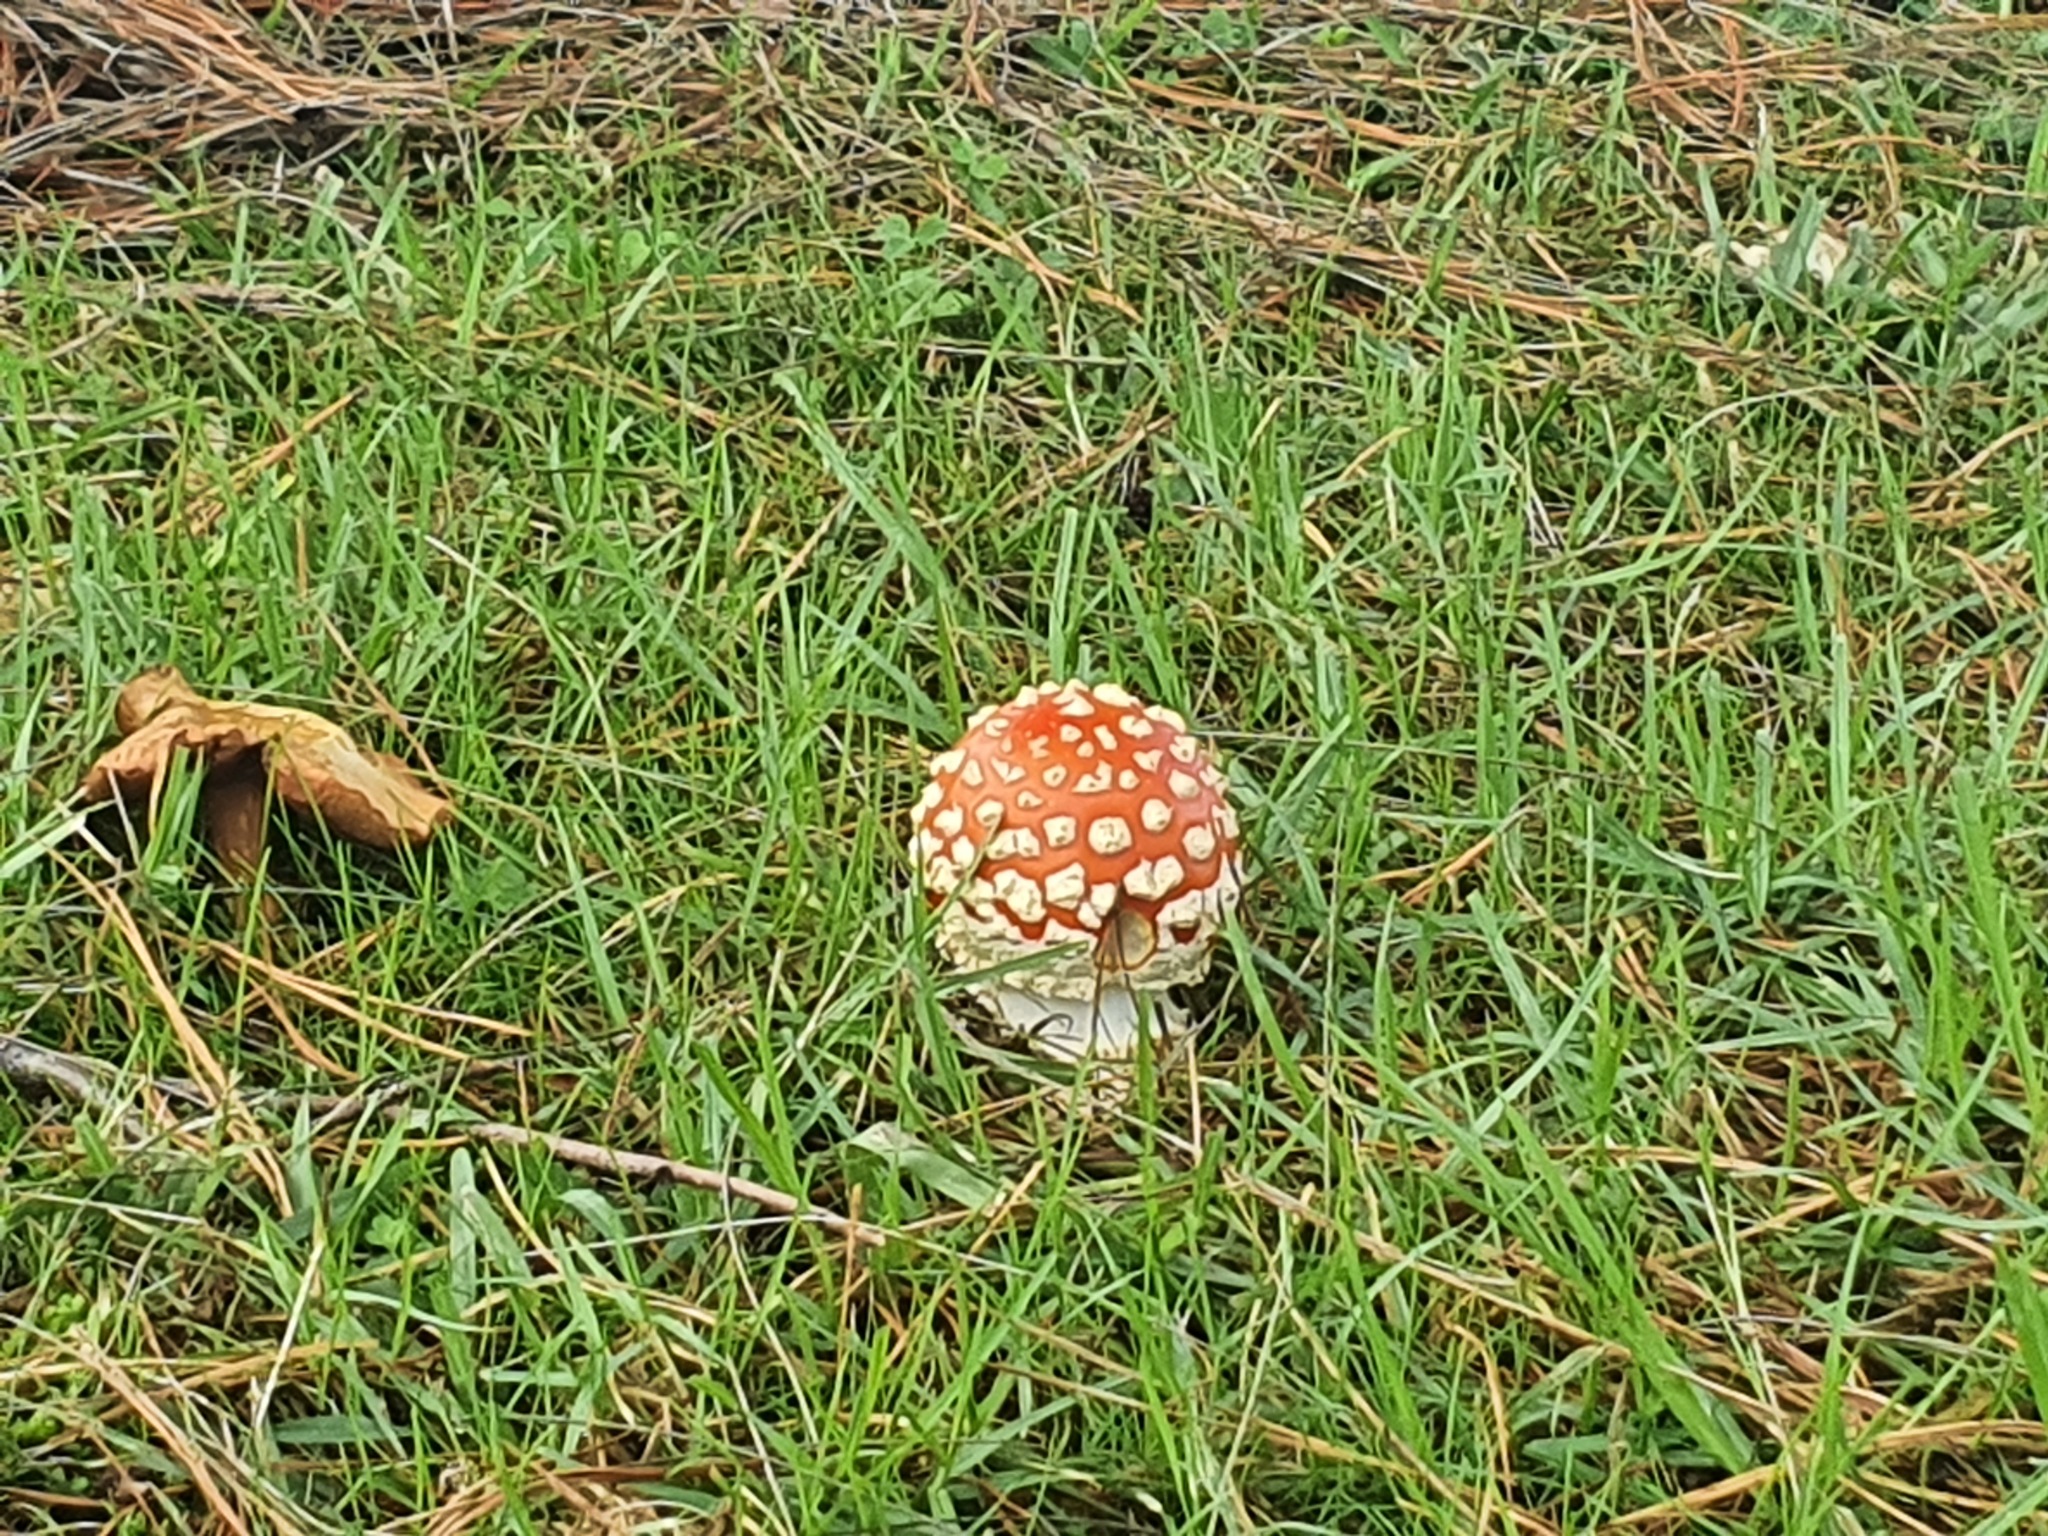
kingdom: Fungi
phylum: Basidiomycota
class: Agaricomycetes
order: Agaricales
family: Amanitaceae
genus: Amanita
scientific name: Amanita muscaria
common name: Fly agaric
